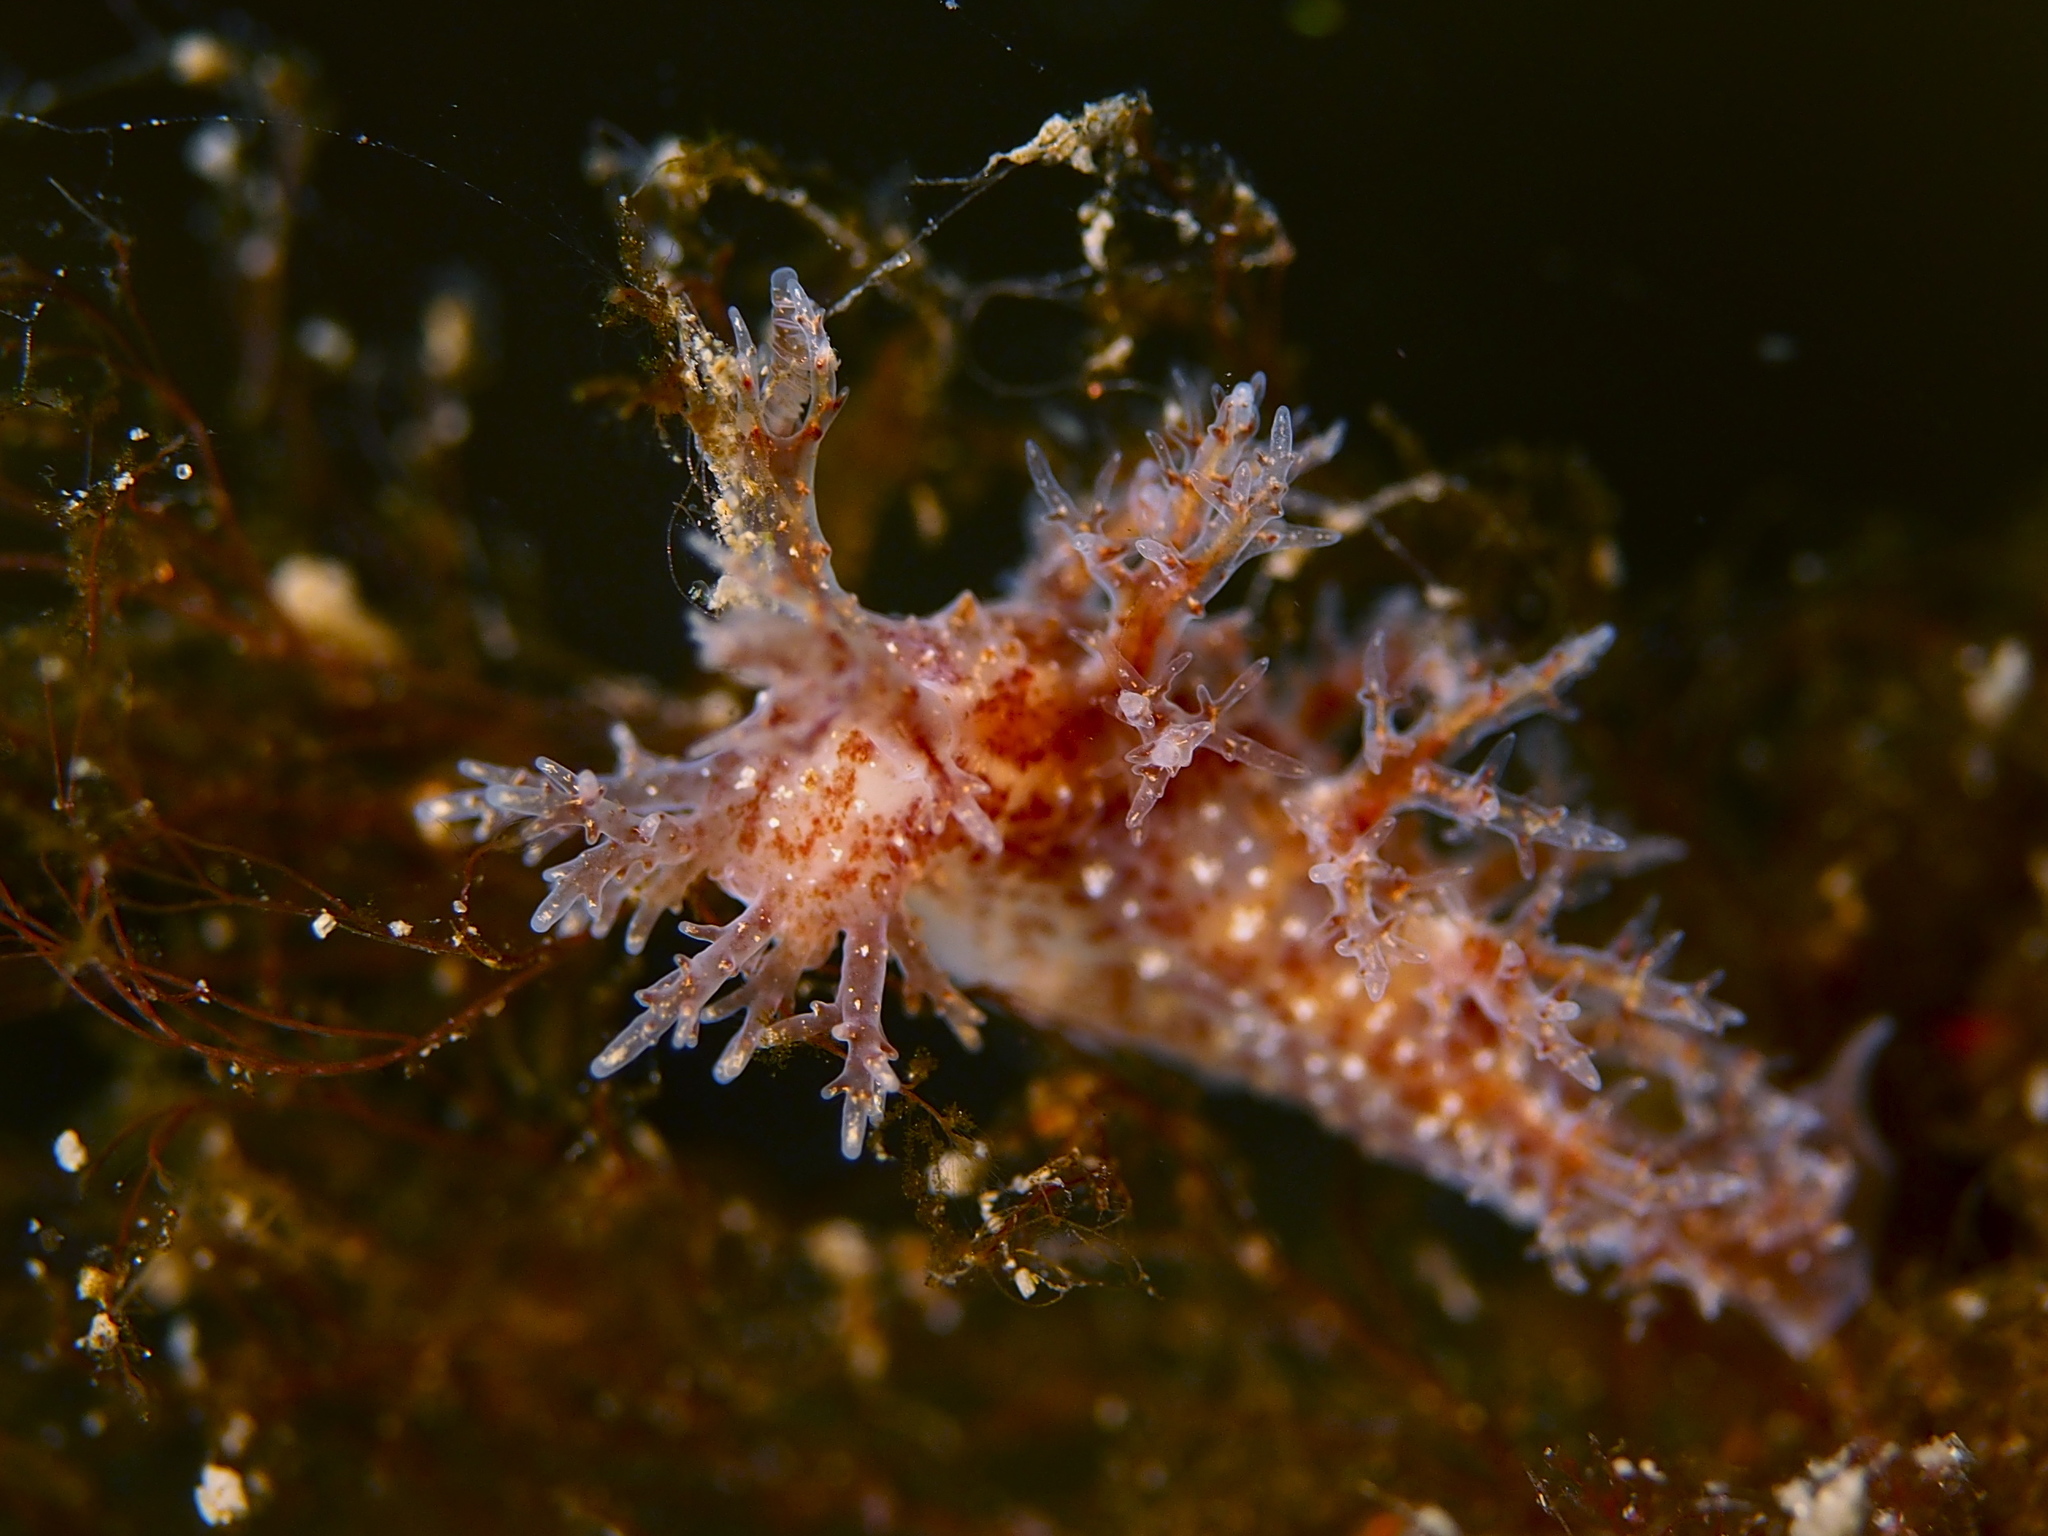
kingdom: Animalia
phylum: Mollusca
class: Gastropoda
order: Nudibranchia
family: Dendronotidae
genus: Dendronotus
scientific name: Dendronotus frondosus
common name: Bushy-backed nudibranch
